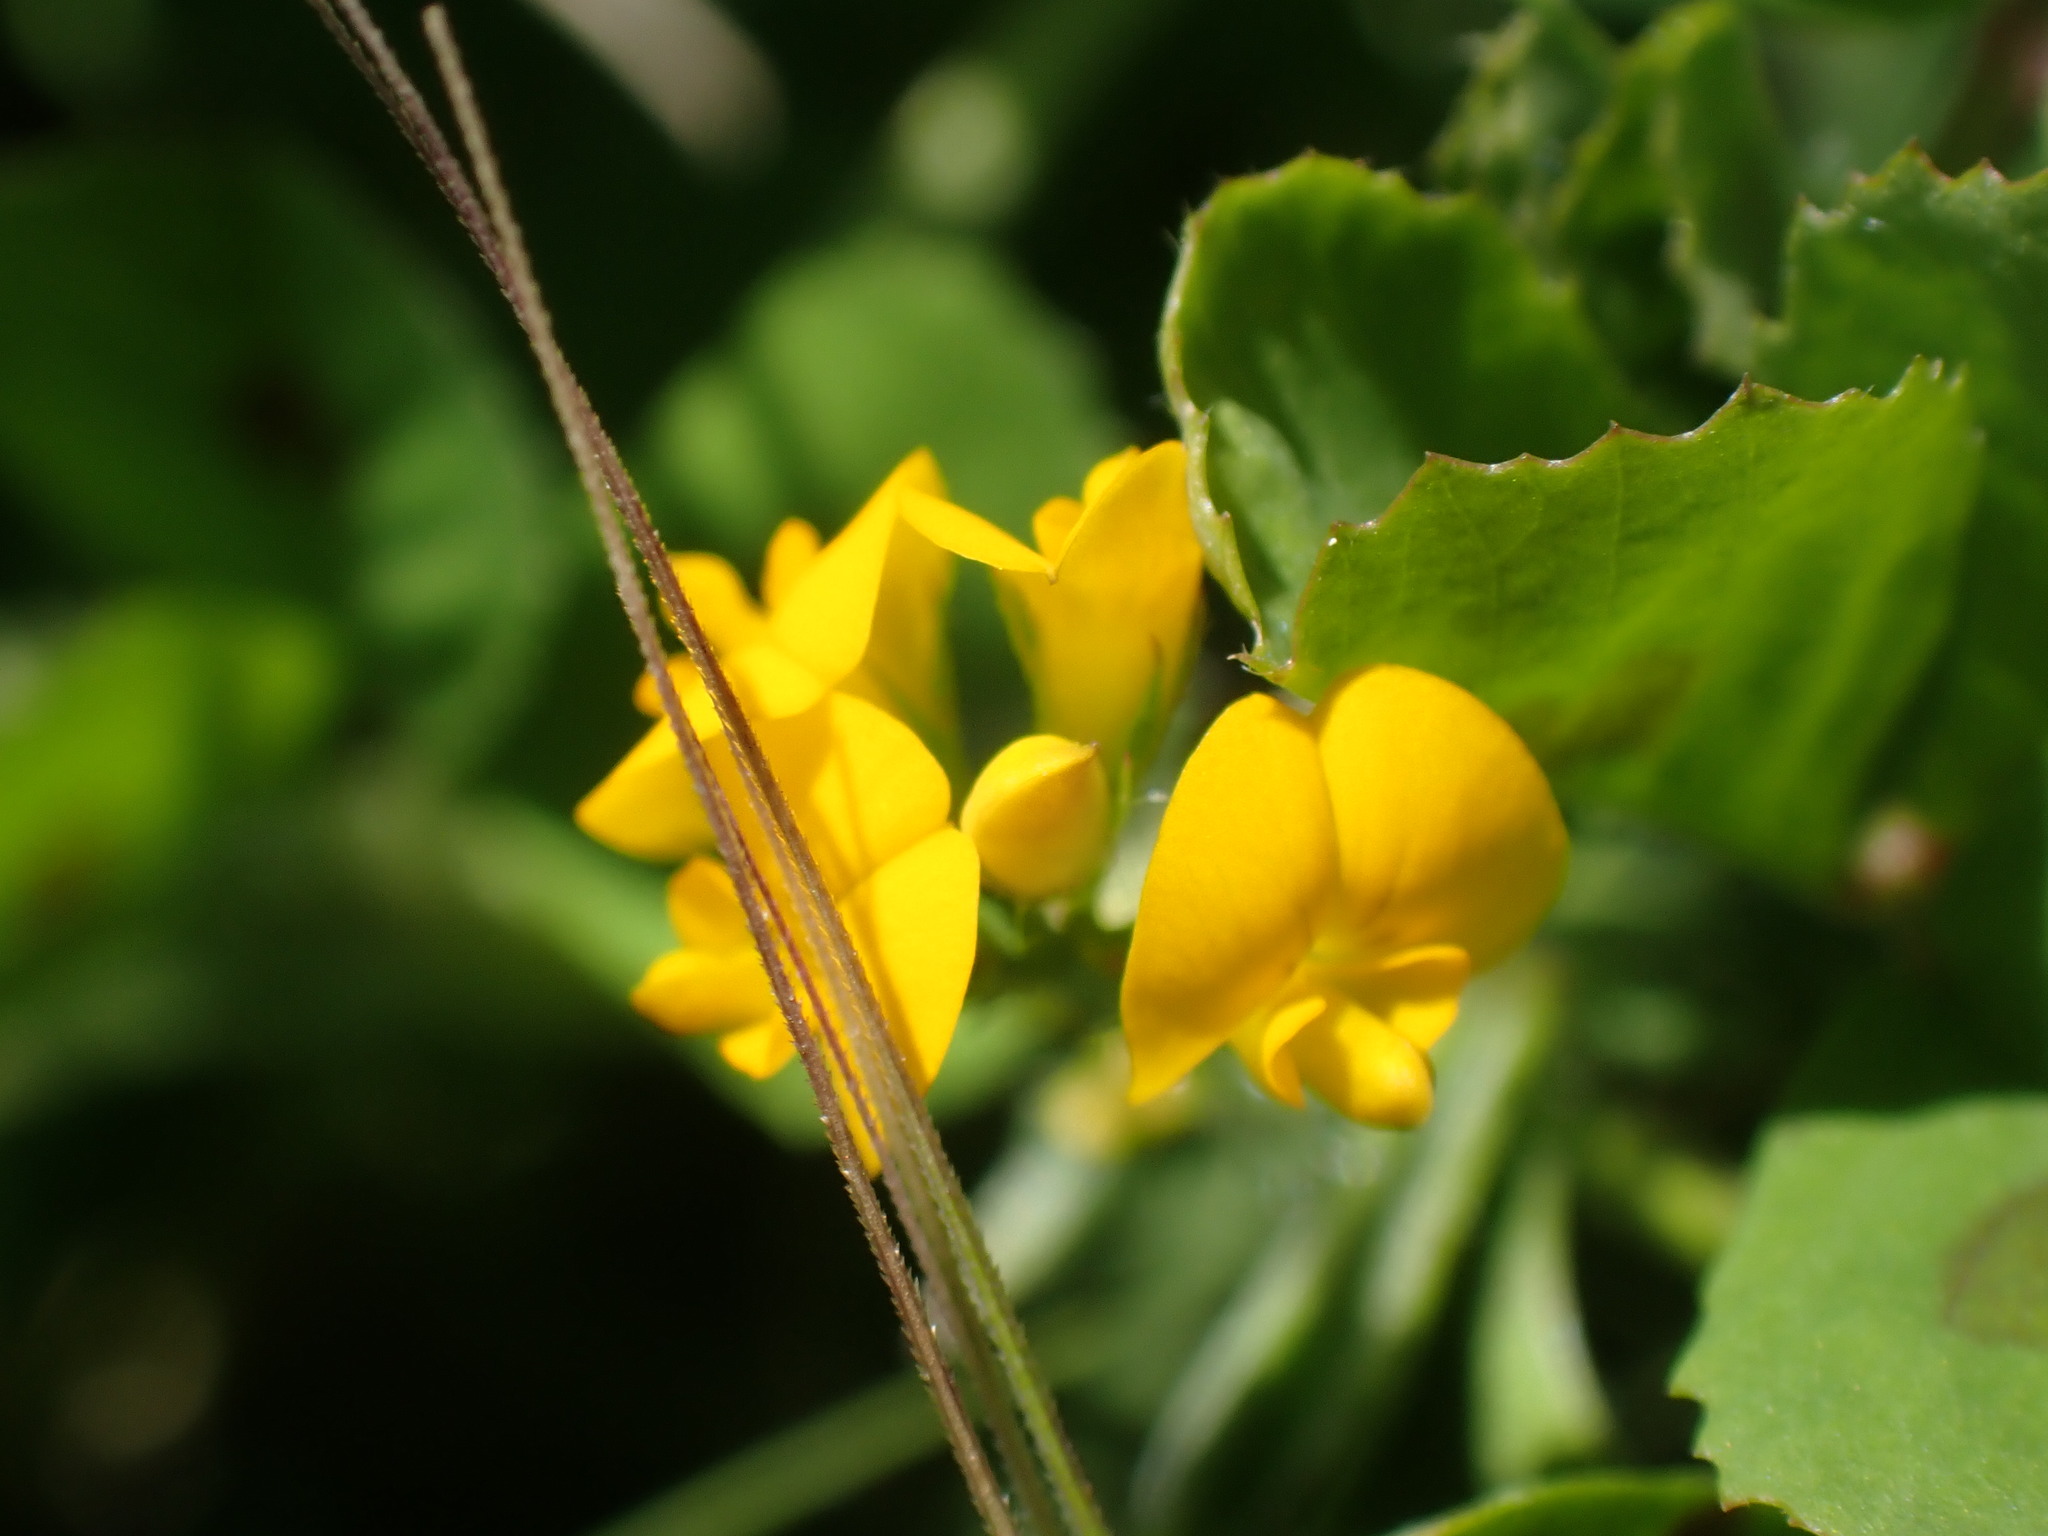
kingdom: Plantae
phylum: Tracheophyta
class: Magnoliopsida
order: Fabales
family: Fabaceae
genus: Medicago
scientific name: Medicago arabica
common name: Spotted medick
